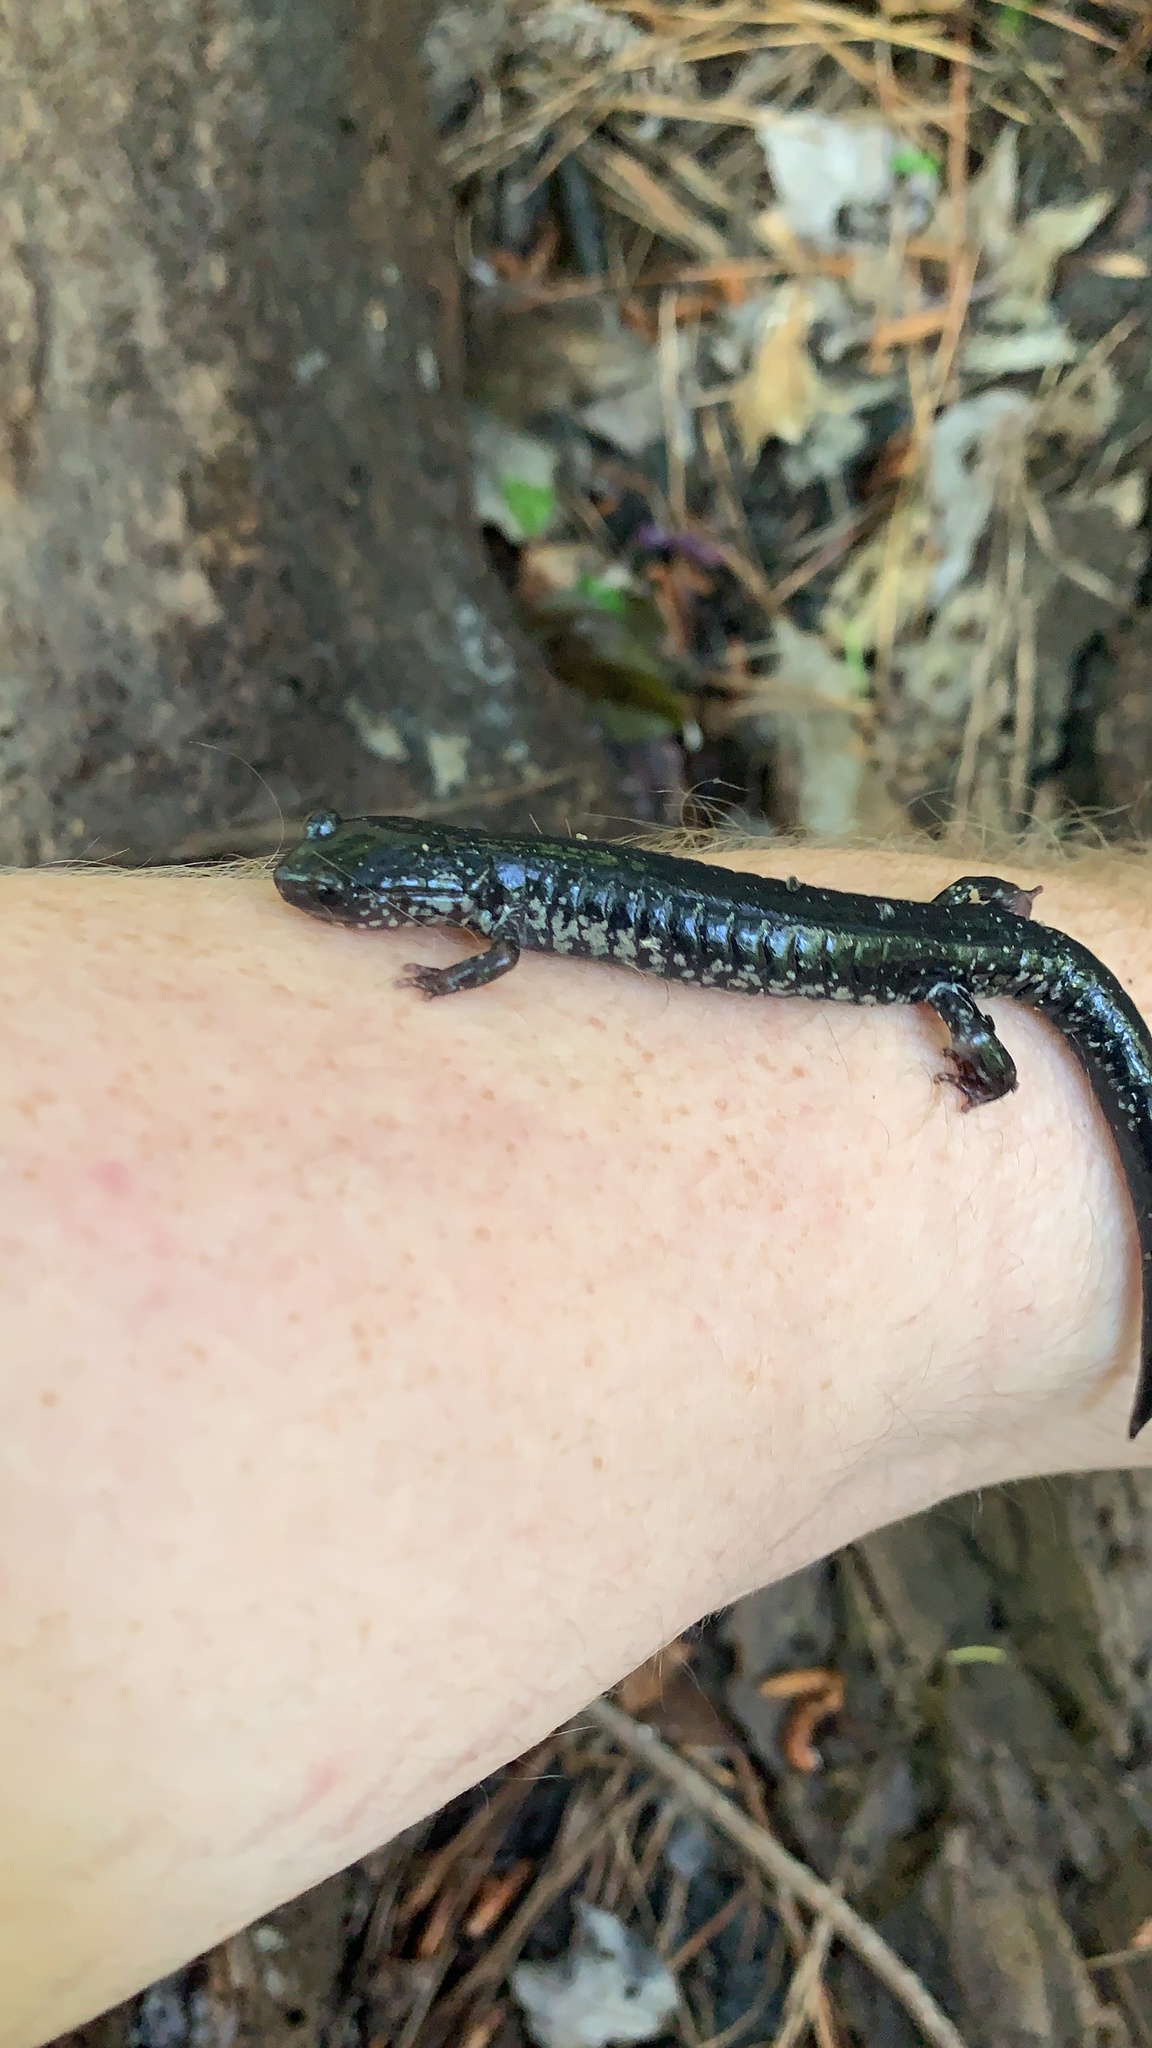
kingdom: Animalia
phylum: Chordata
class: Amphibia
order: Caudata
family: Plethodontidae
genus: Plethodon
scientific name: Plethodon chlorobryonis
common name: Atlantic coast slimy salamander
